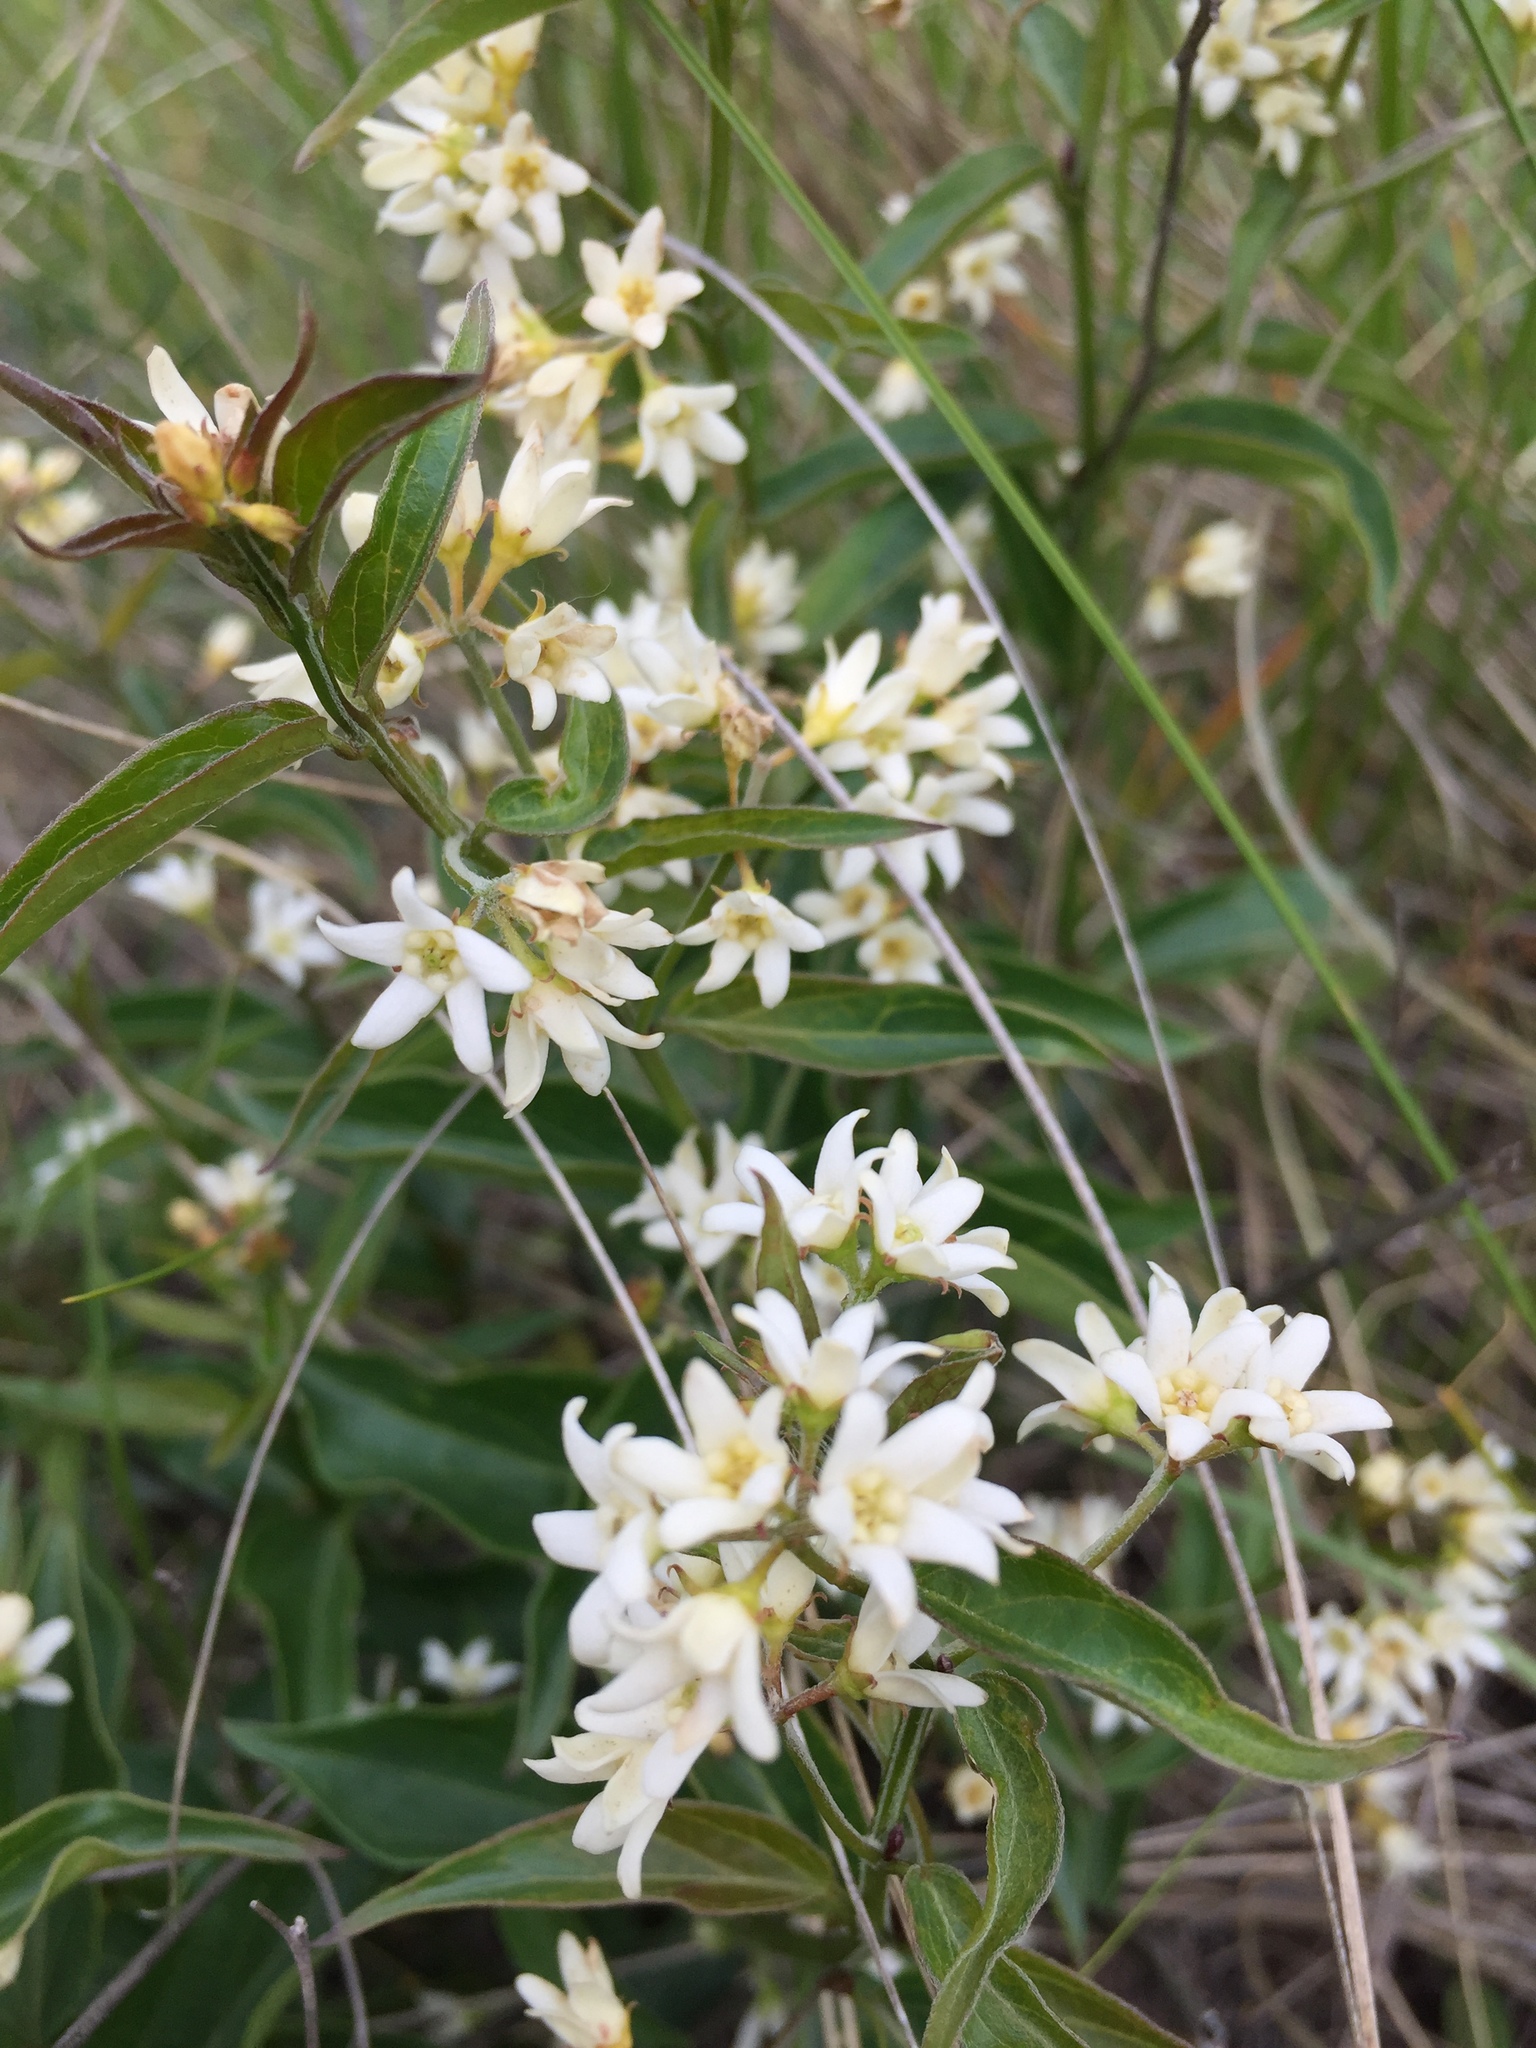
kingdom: Plantae
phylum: Tracheophyta
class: Magnoliopsida
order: Gentianales
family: Apocynaceae
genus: Vincetoxicum
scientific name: Vincetoxicum hirundinaria
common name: White swallowwort
